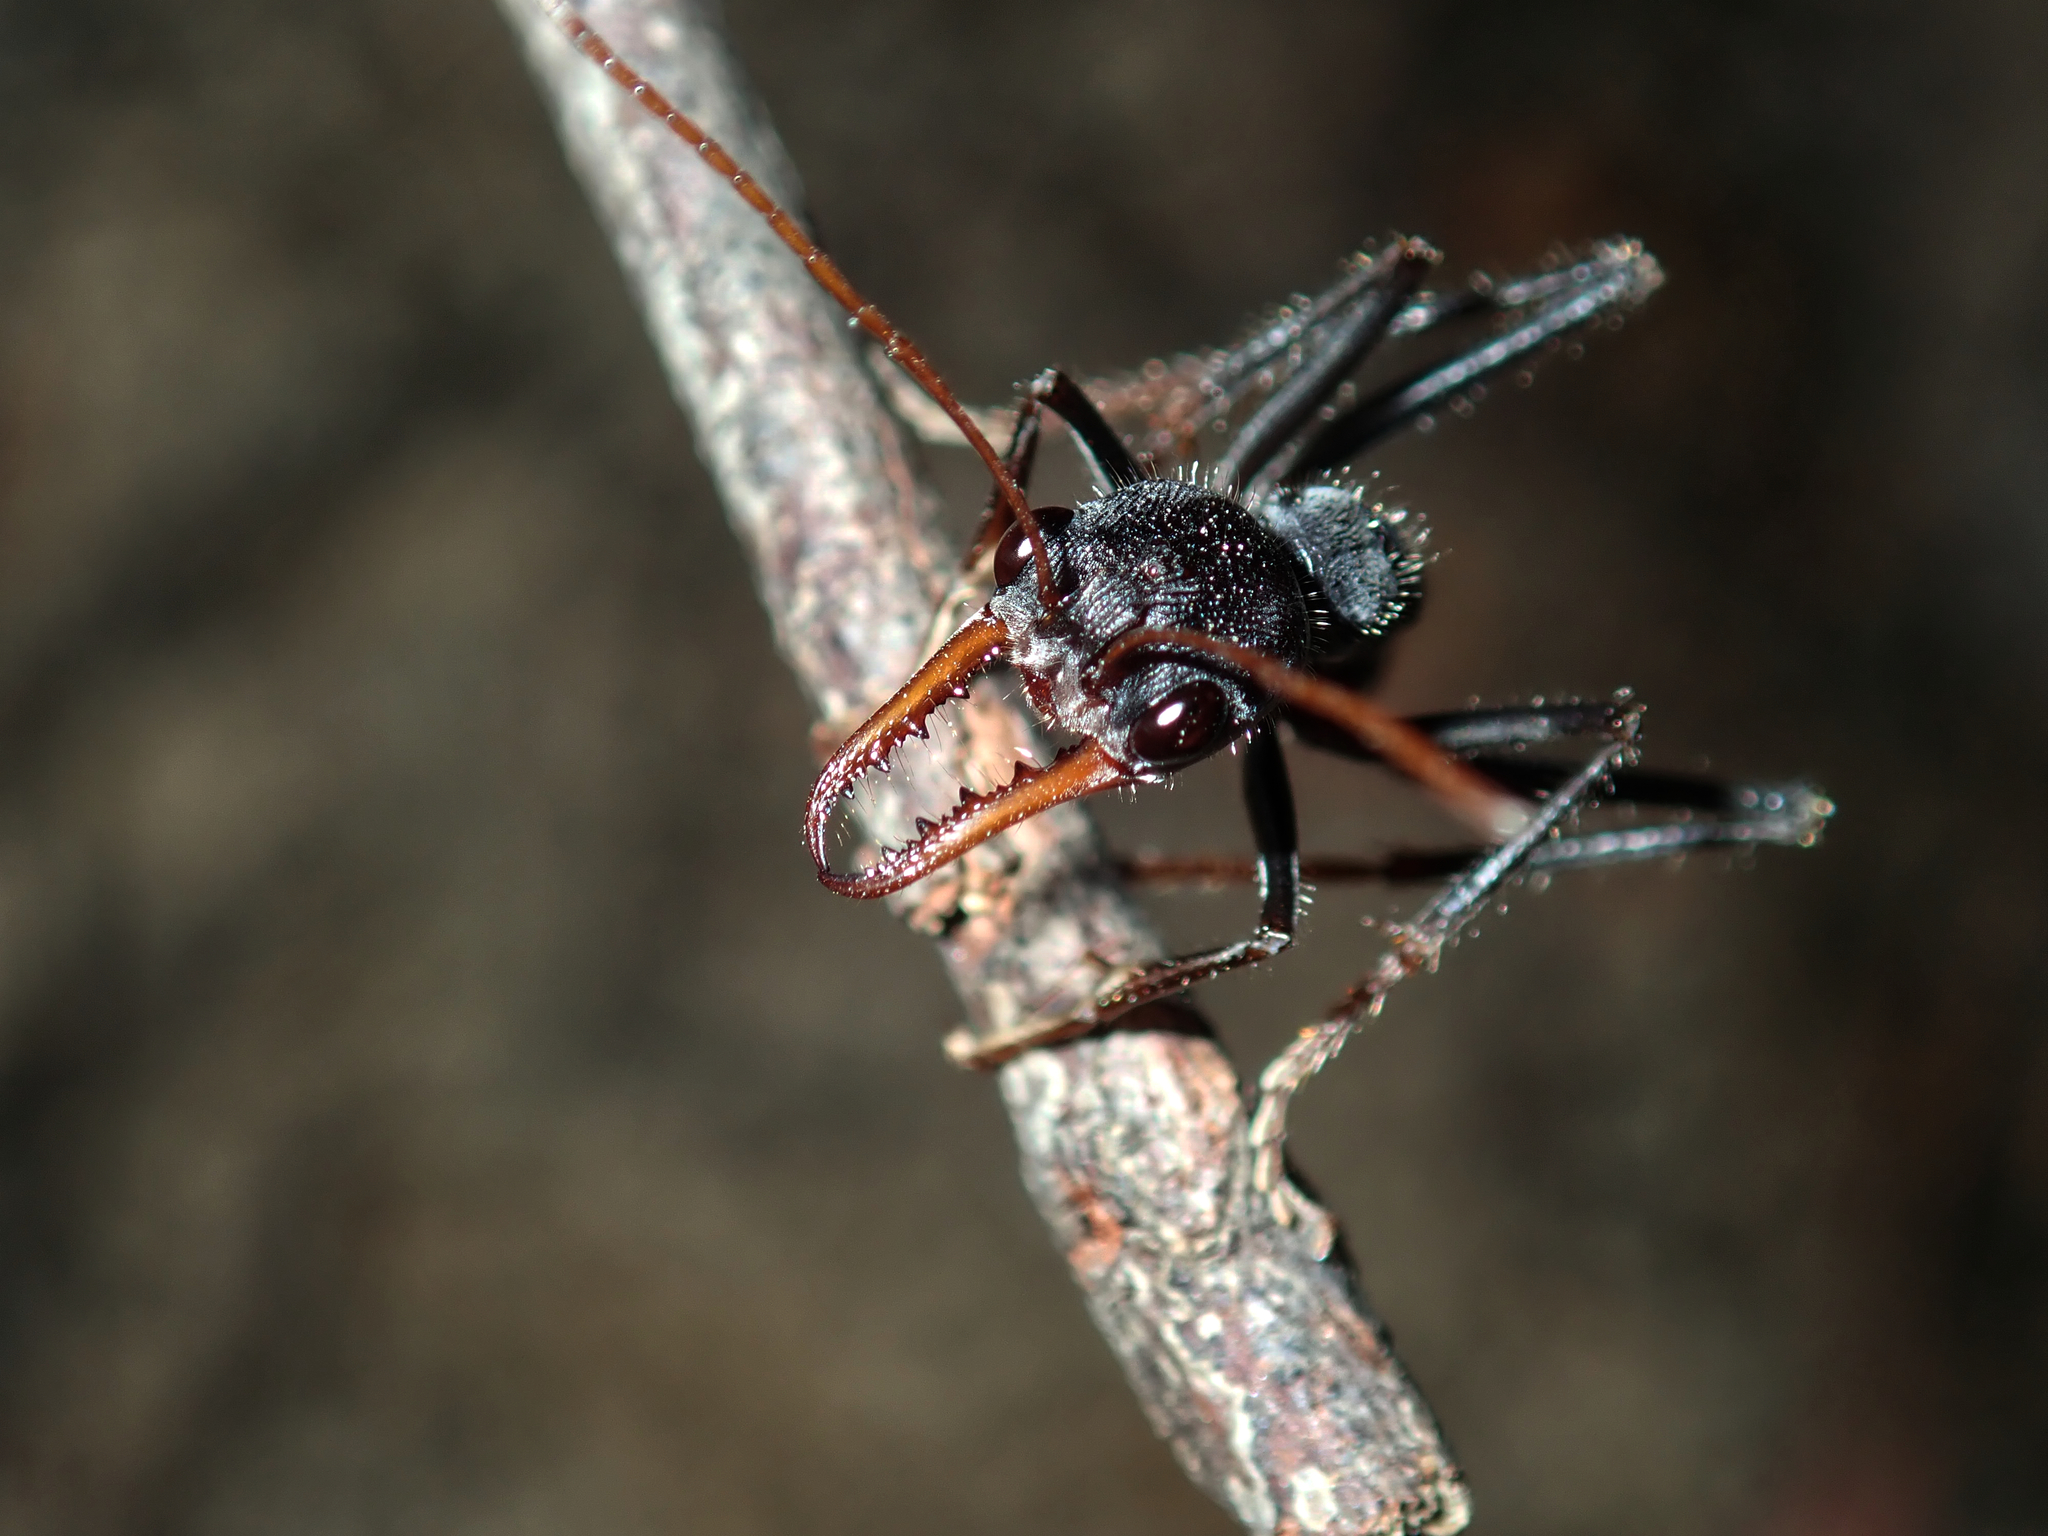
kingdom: Animalia
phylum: Arthropoda
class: Insecta
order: Hymenoptera
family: Formicidae
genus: Myrmecia
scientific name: Myrmecia simillima
